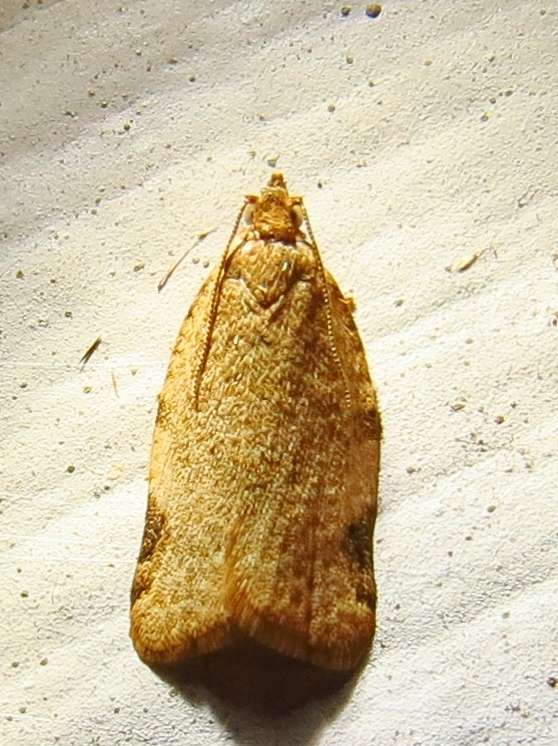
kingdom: Animalia
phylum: Arthropoda
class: Insecta
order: Lepidoptera
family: Tortricidae
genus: Clepsis
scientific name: Clepsis virescana
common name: Greenish apple moth
